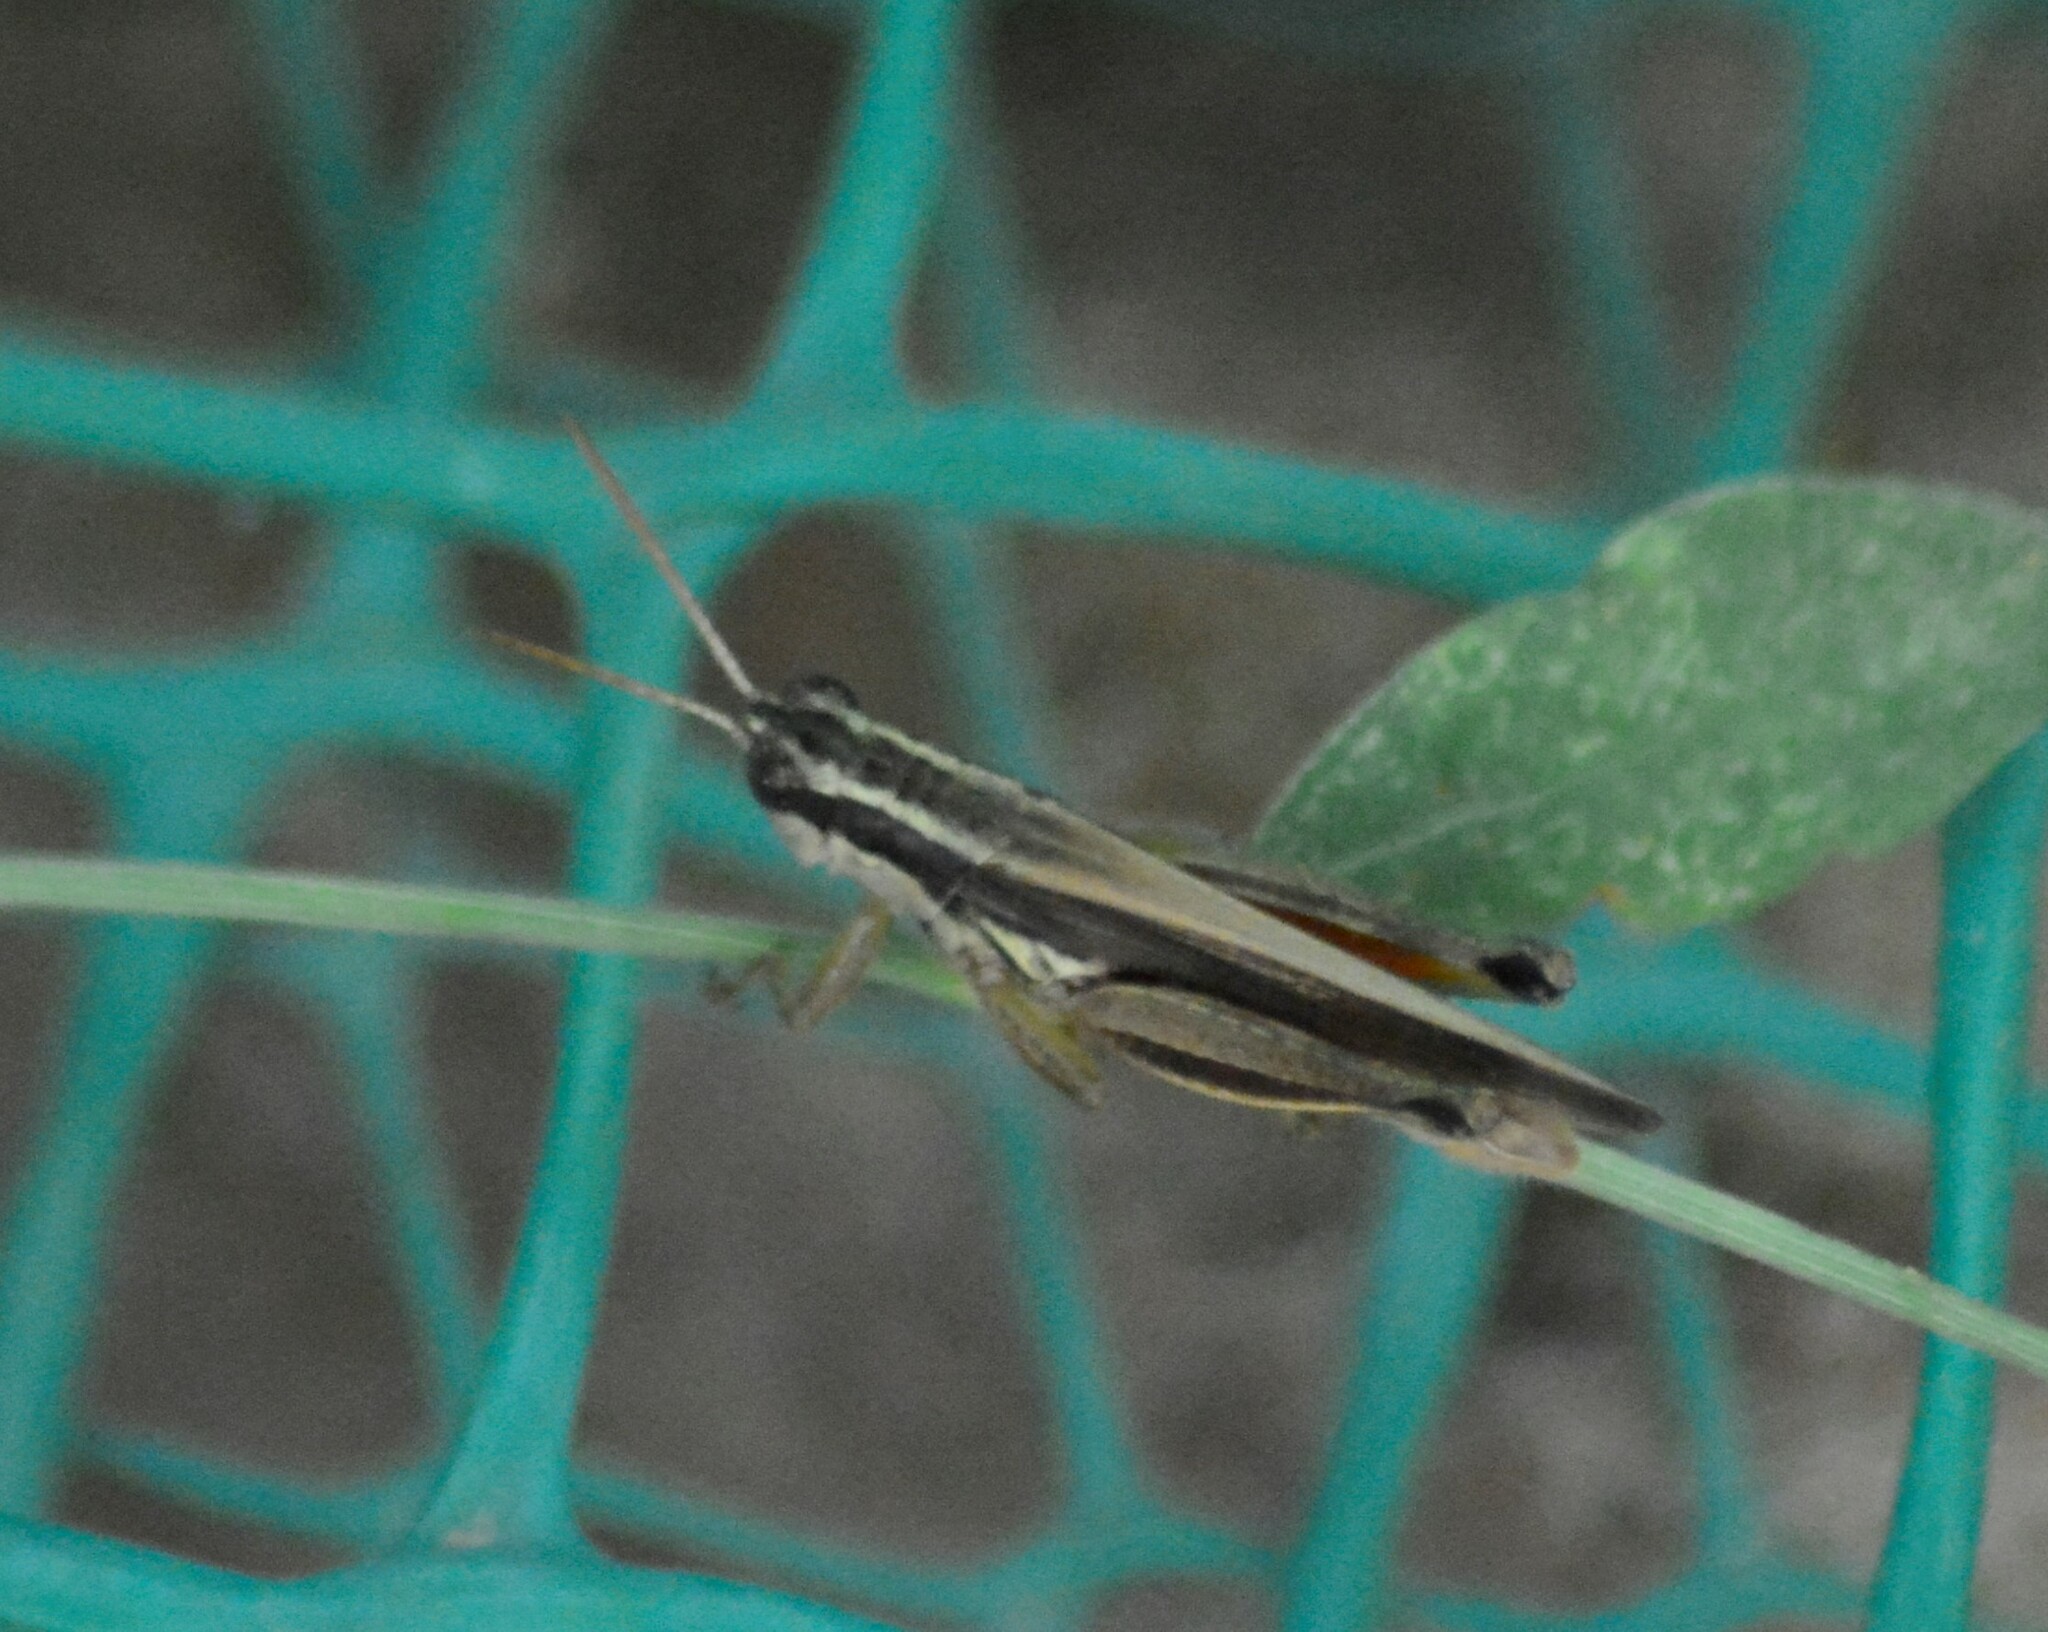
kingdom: Animalia
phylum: Arthropoda
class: Insecta
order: Orthoptera
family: Acrididae
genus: Dichroplus
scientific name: Dichroplus elongatus
